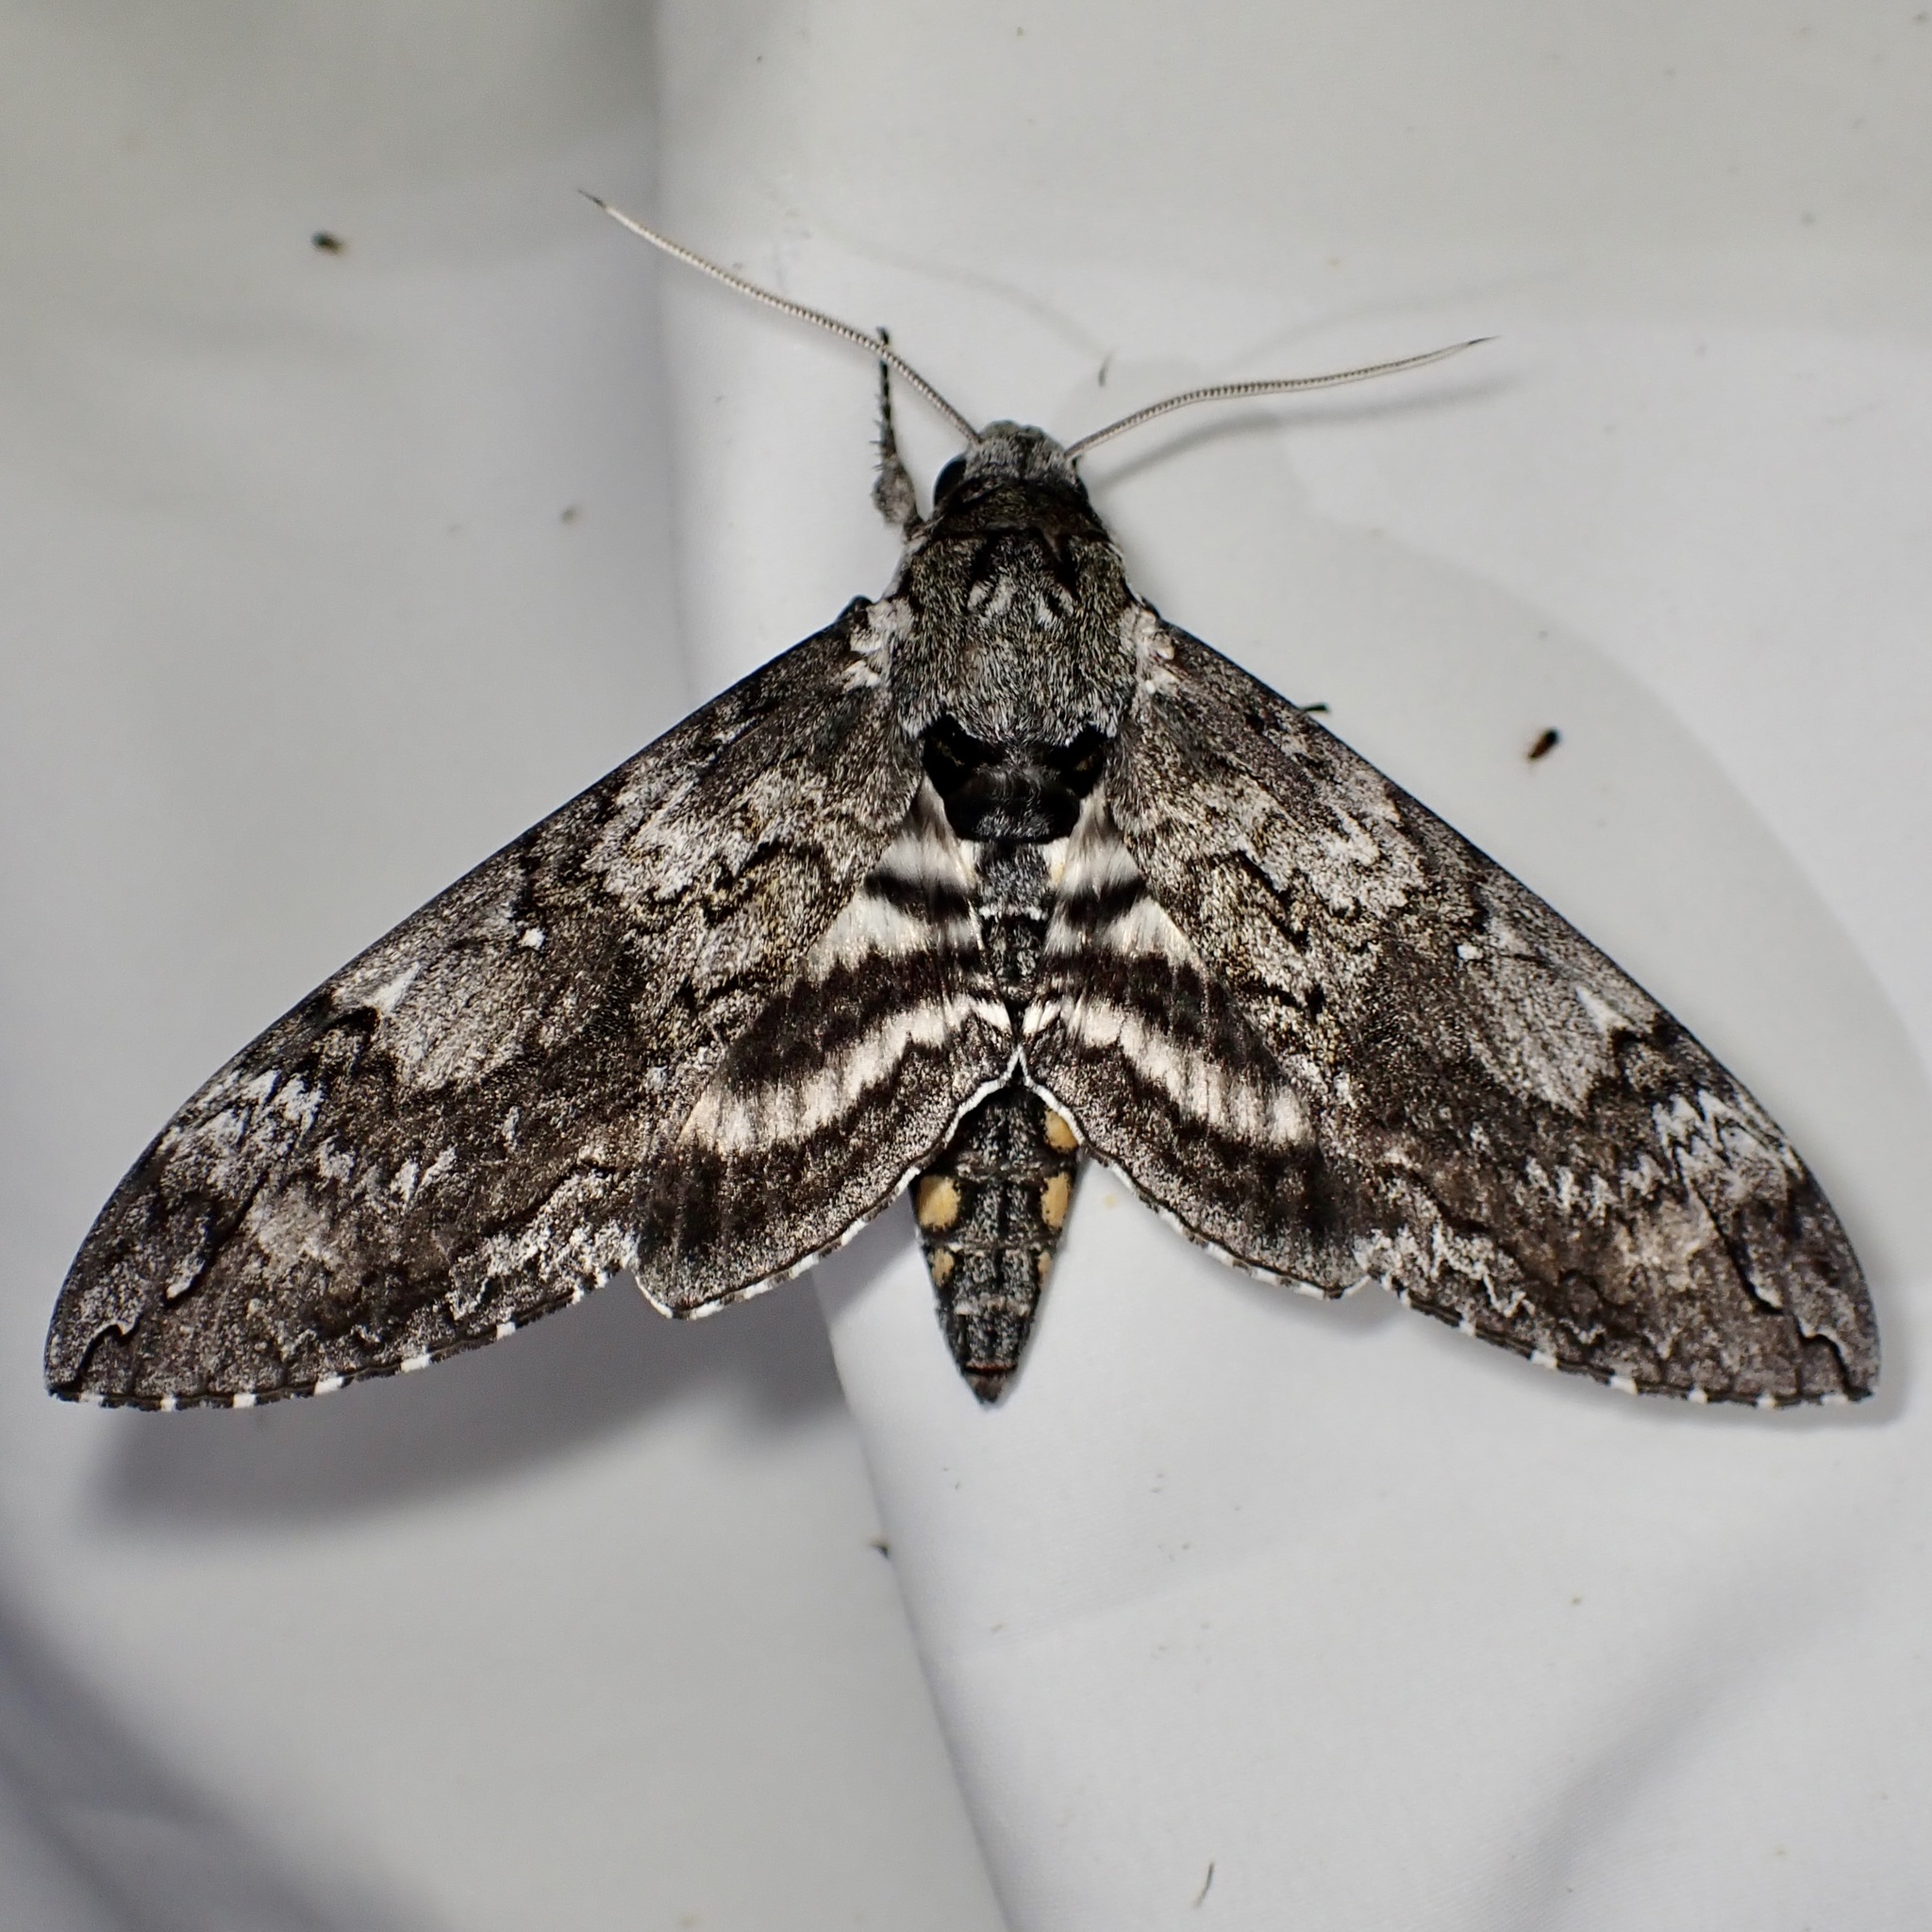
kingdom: Animalia
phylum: Arthropoda
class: Insecta
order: Lepidoptera
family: Sphingidae
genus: Manduca
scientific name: Manduca sexta
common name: Carolina sphinx
